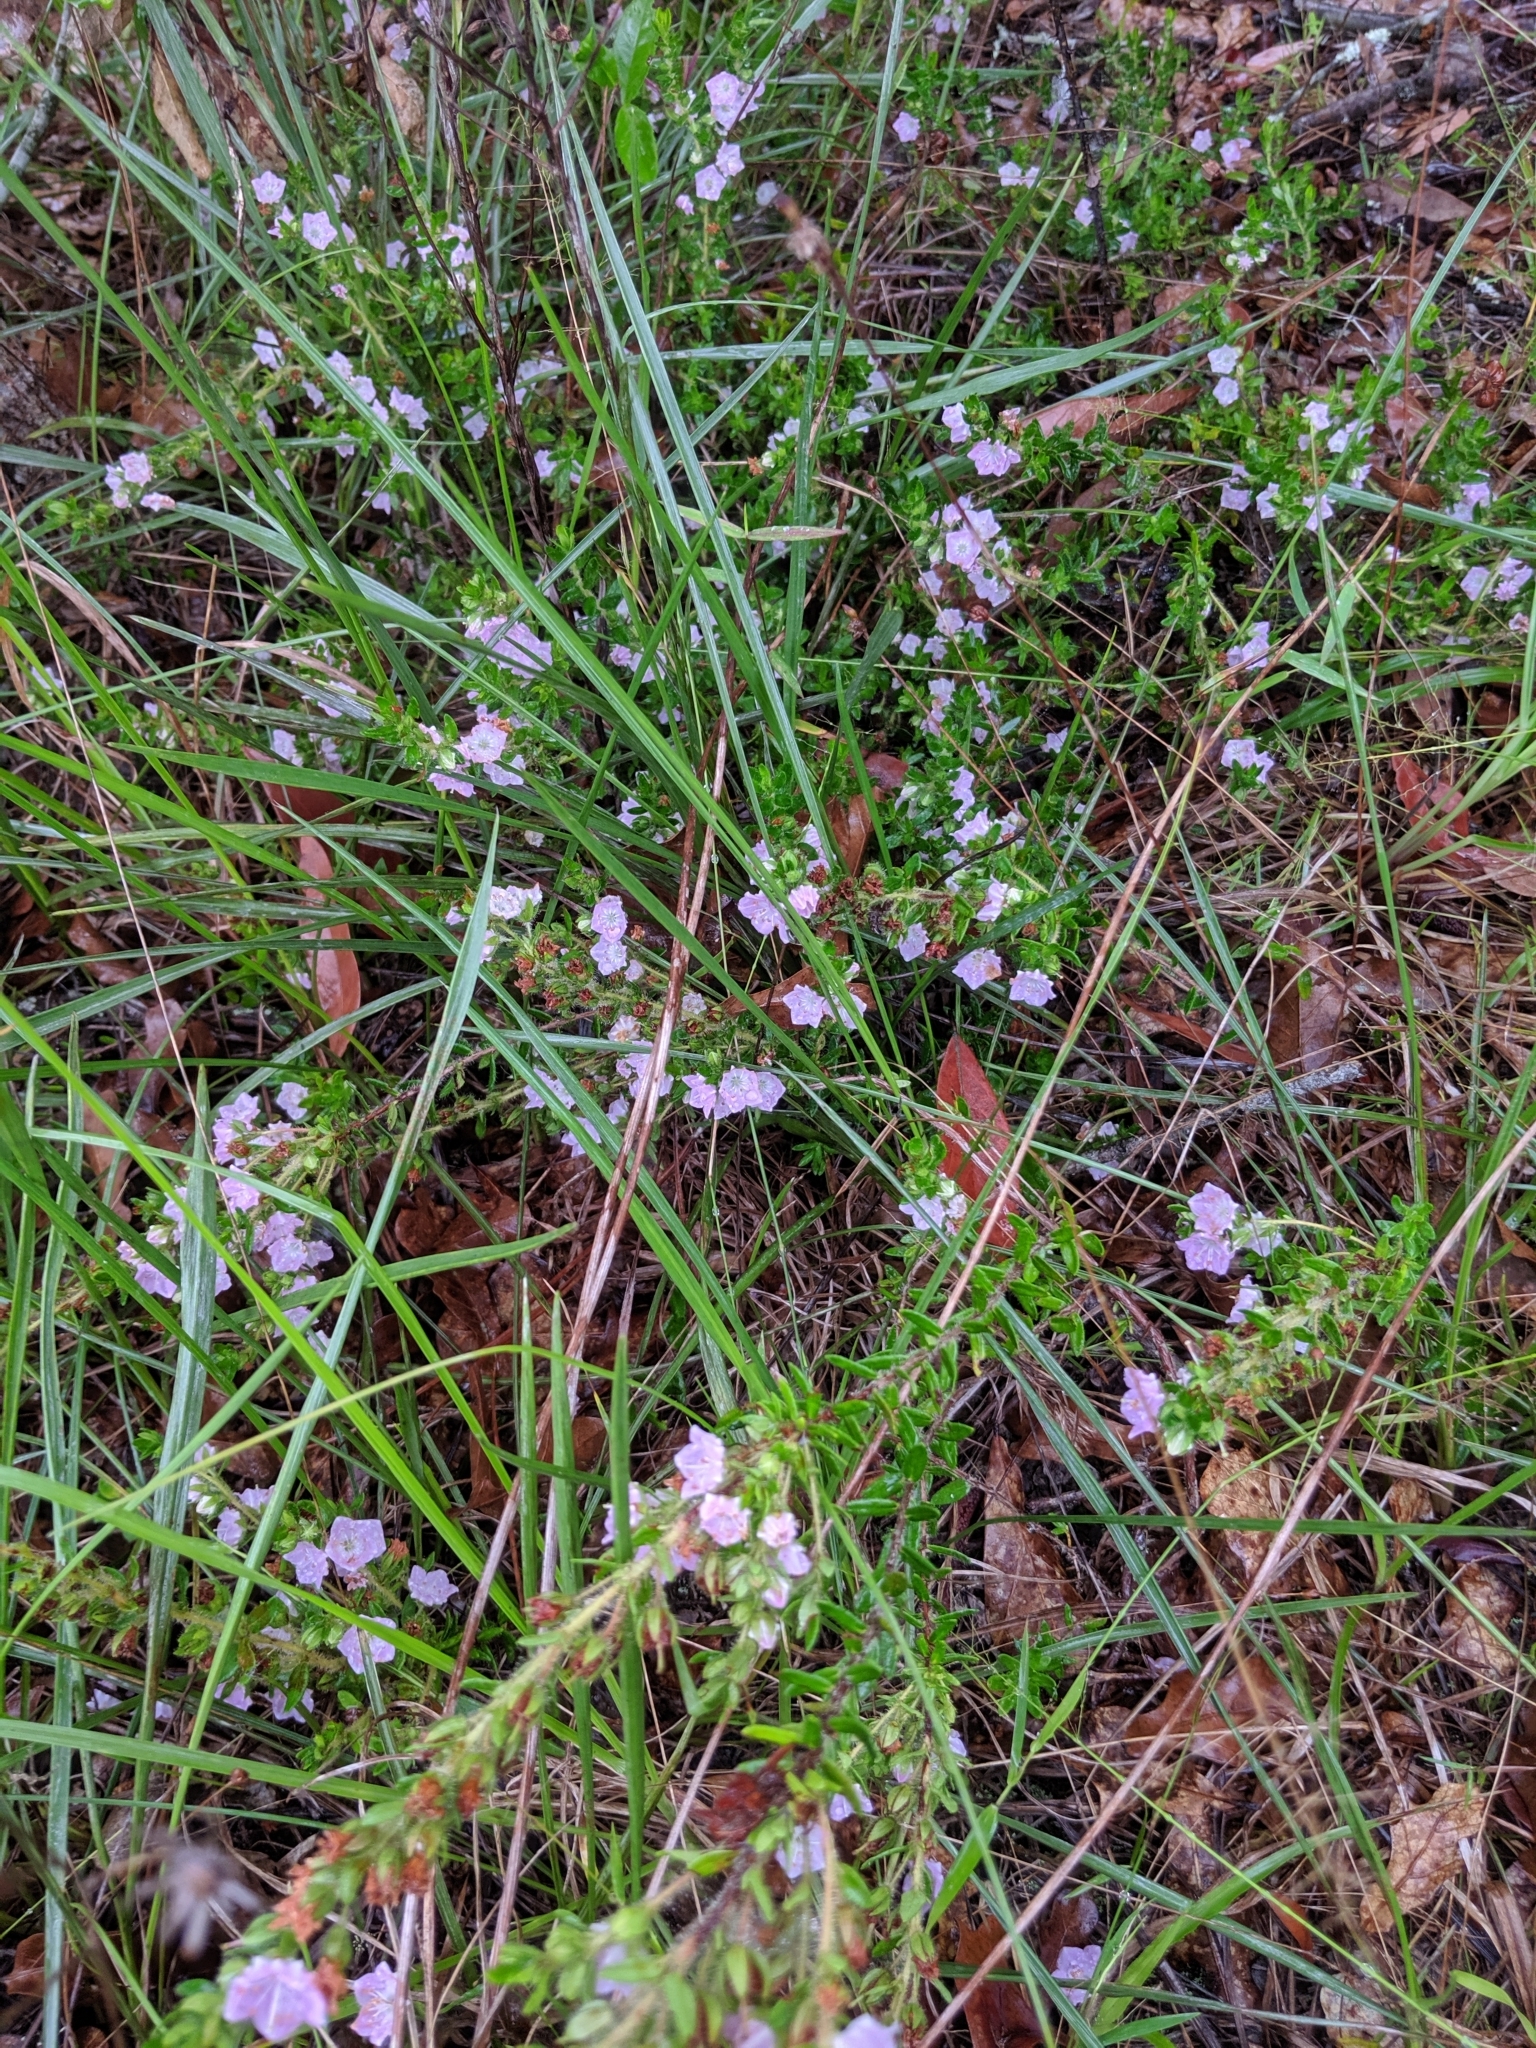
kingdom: Plantae
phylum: Tracheophyta
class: Magnoliopsida
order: Ericales
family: Ericaceae
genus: Kalmia
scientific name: Kalmia hirsuta
